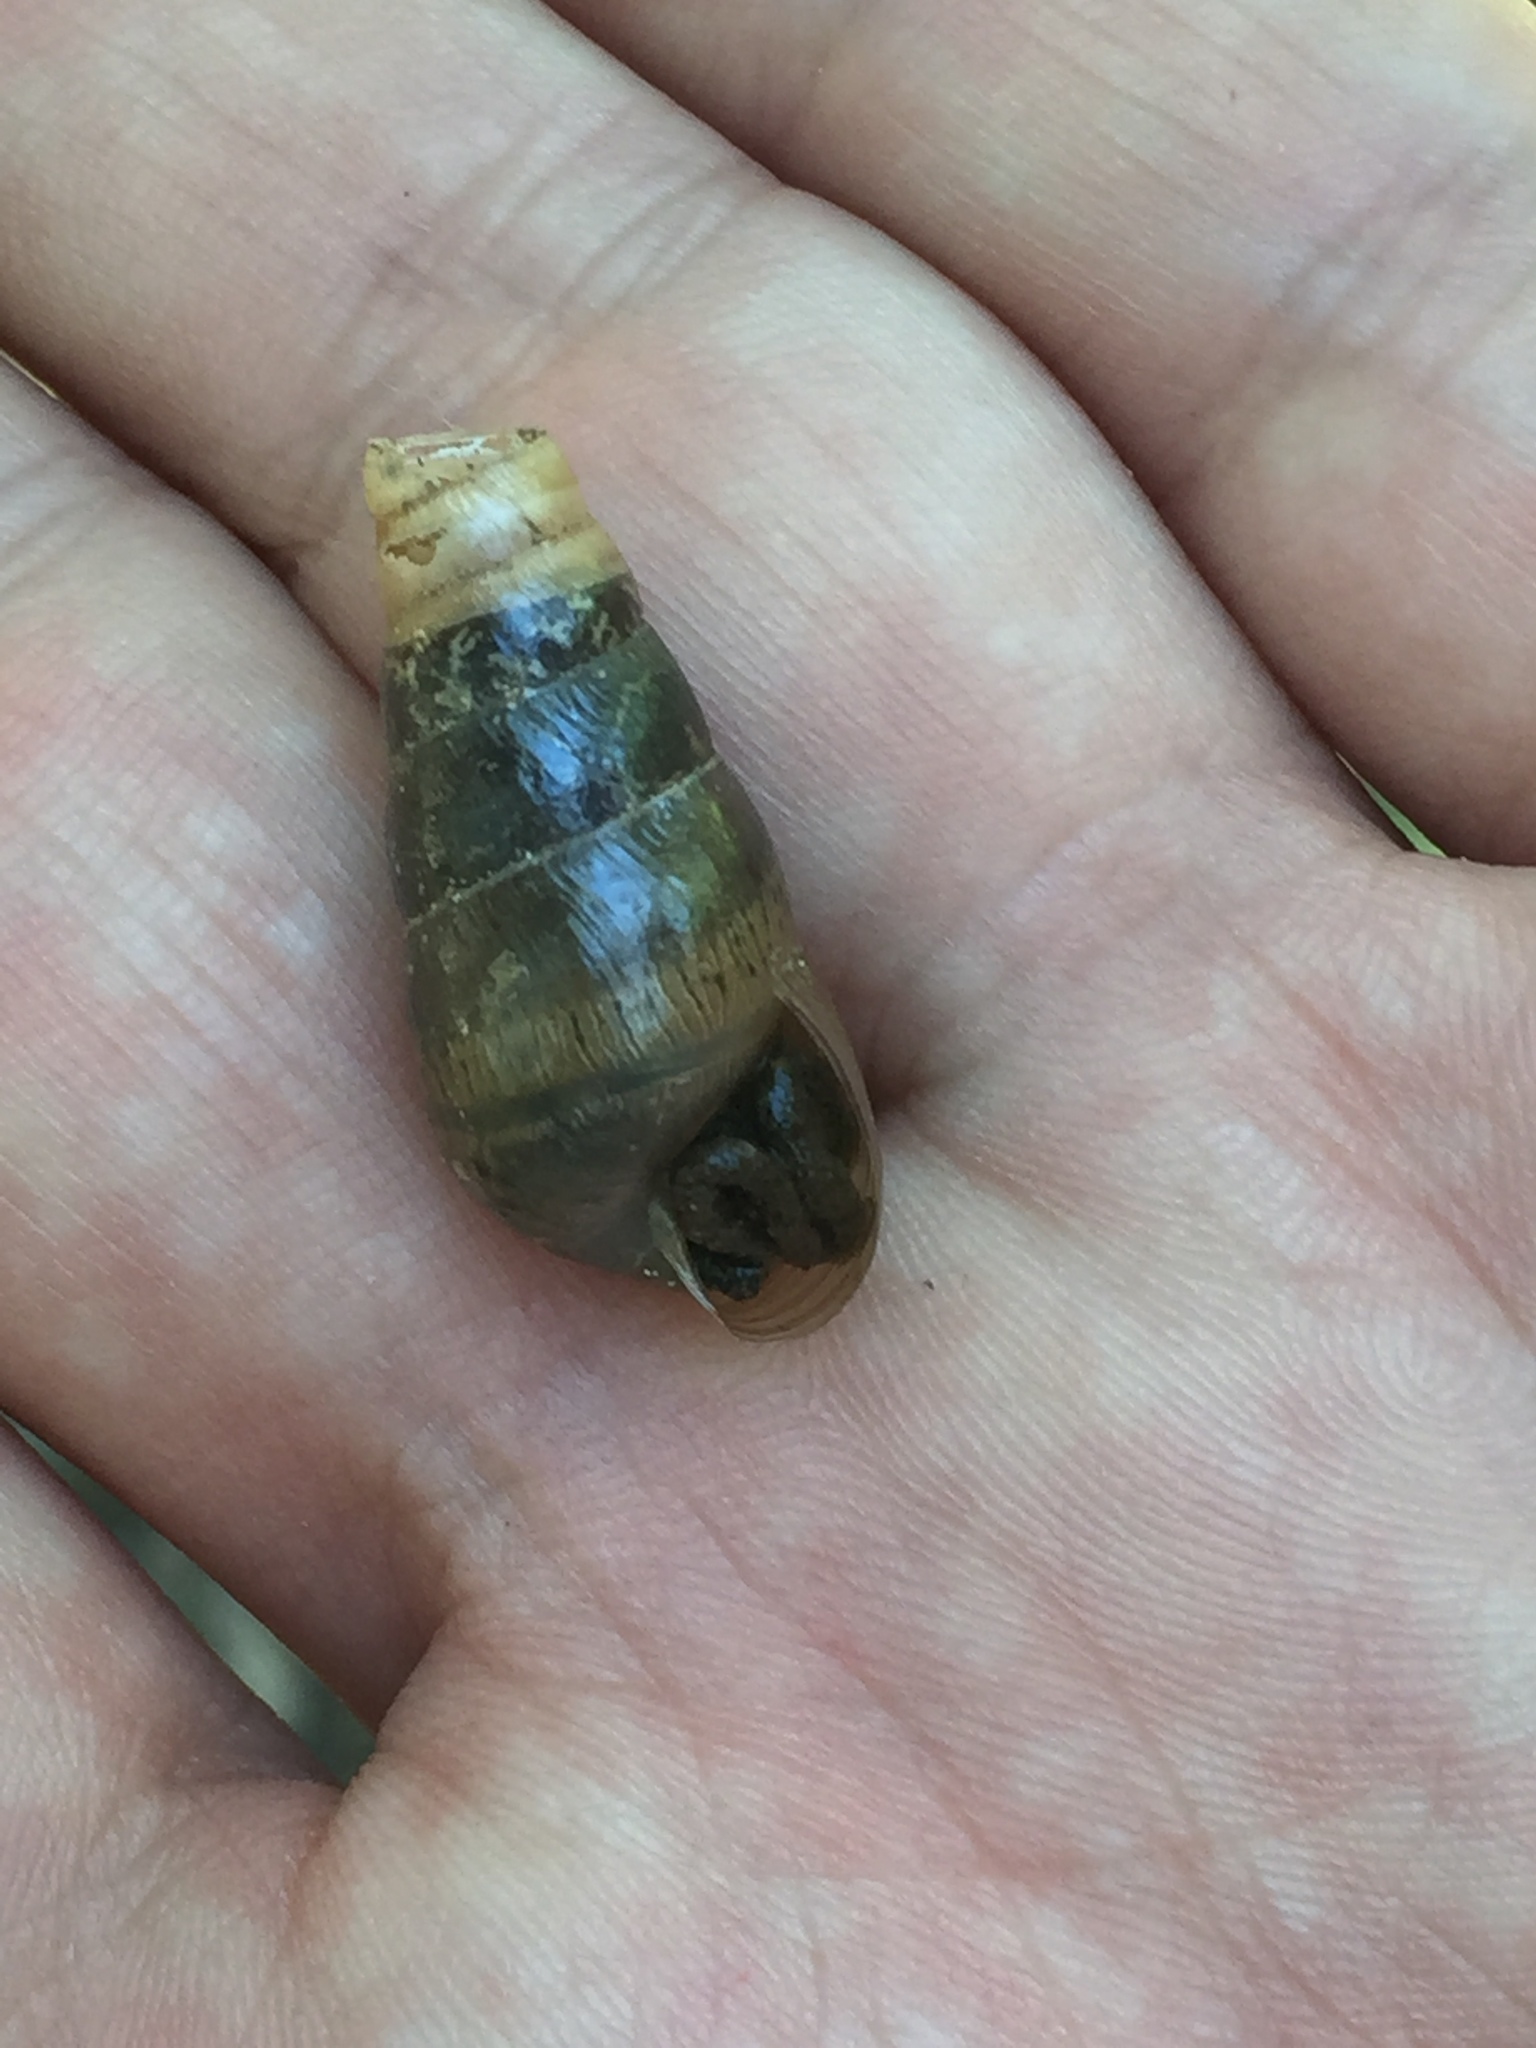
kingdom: Animalia
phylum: Mollusca
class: Gastropoda
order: Stylommatophora
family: Achatinidae
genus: Rumina
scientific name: Rumina decollata
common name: Decollate snail
